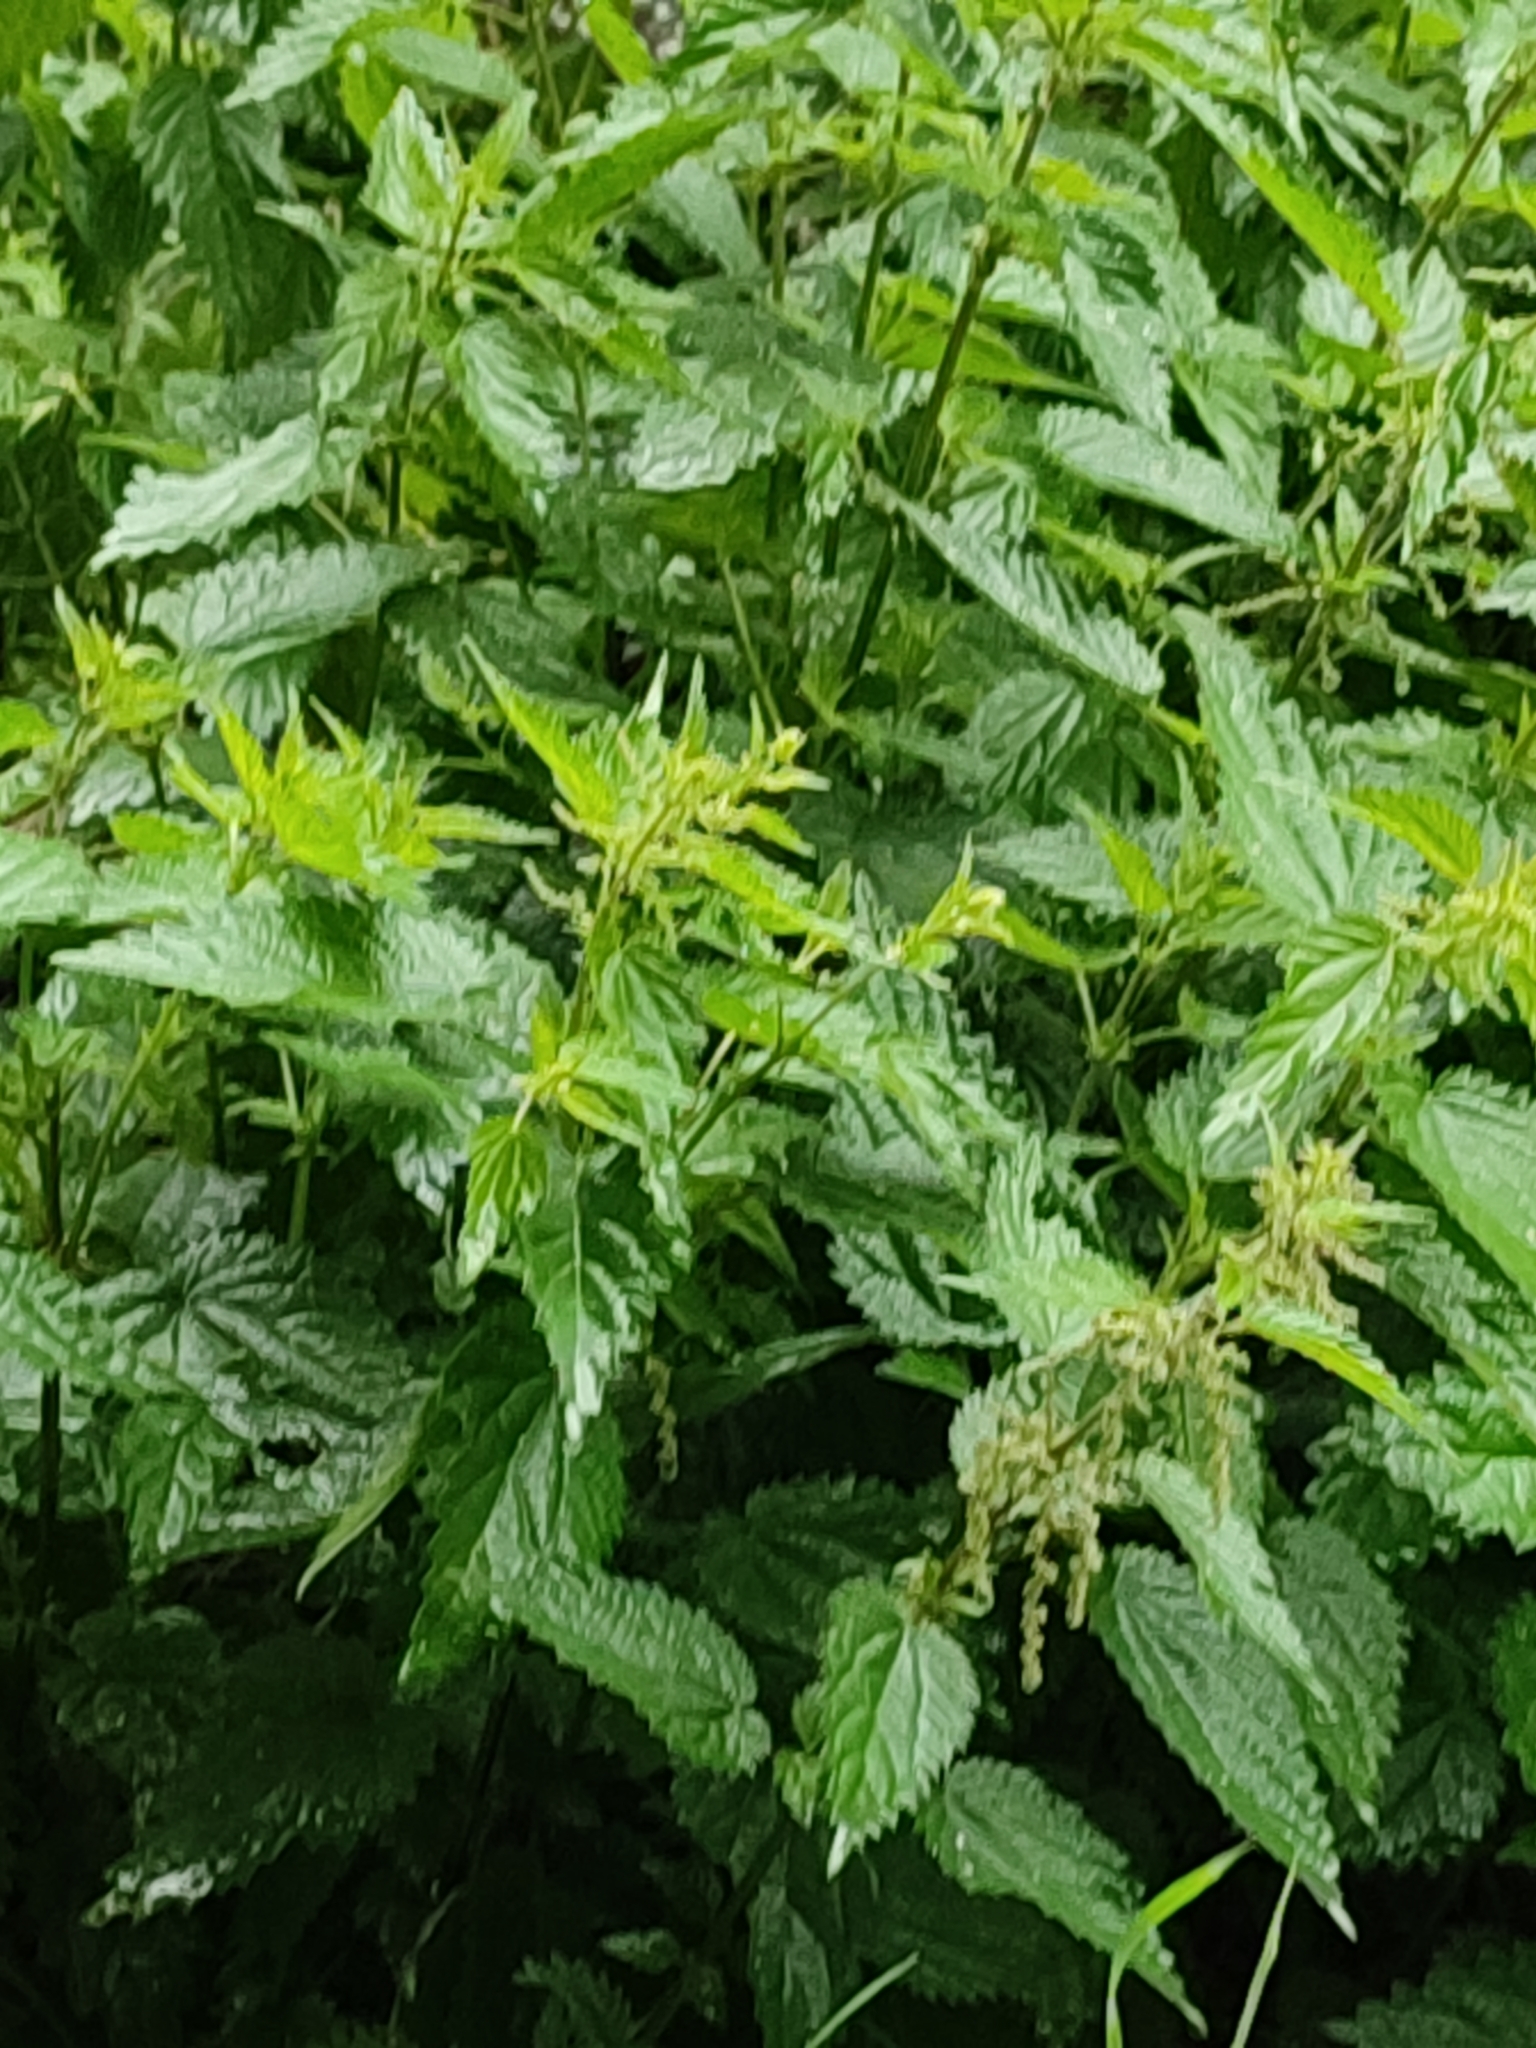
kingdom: Plantae
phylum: Tracheophyta
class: Magnoliopsida
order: Rosales
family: Urticaceae
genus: Urtica
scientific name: Urtica dioica
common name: Common nettle
